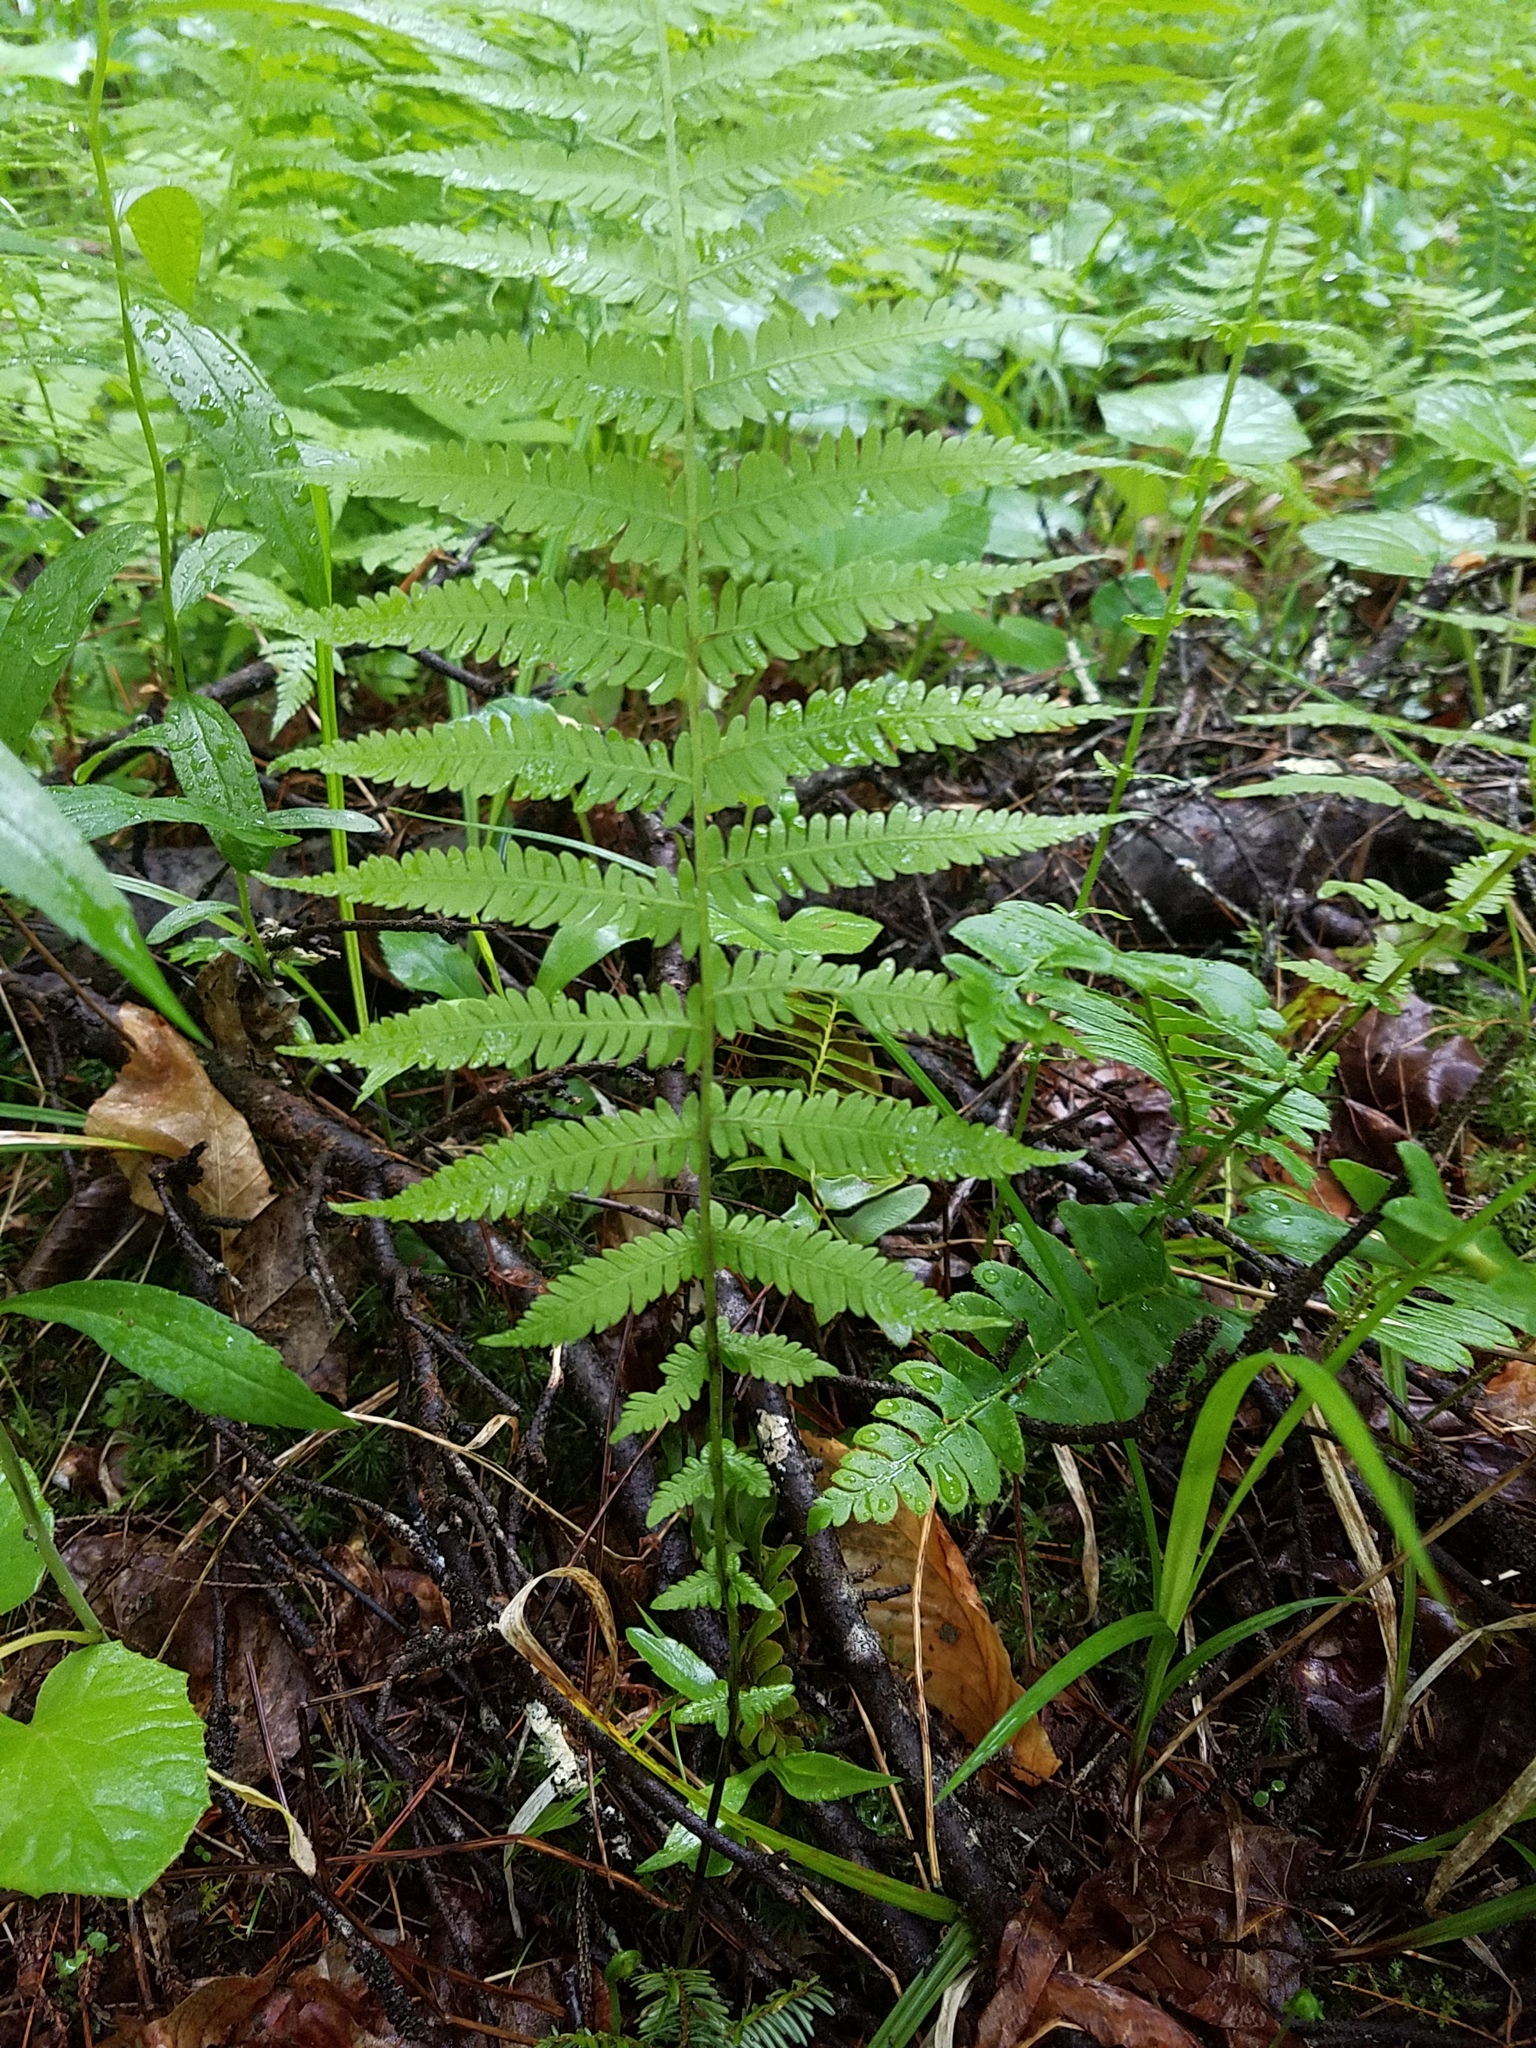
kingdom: Plantae
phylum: Tracheophyta
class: Polypodiopsida
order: Polypodiales
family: Thelypteridaceae
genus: Amauropelta
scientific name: Amauropelta noveboracensis
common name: New york fern
